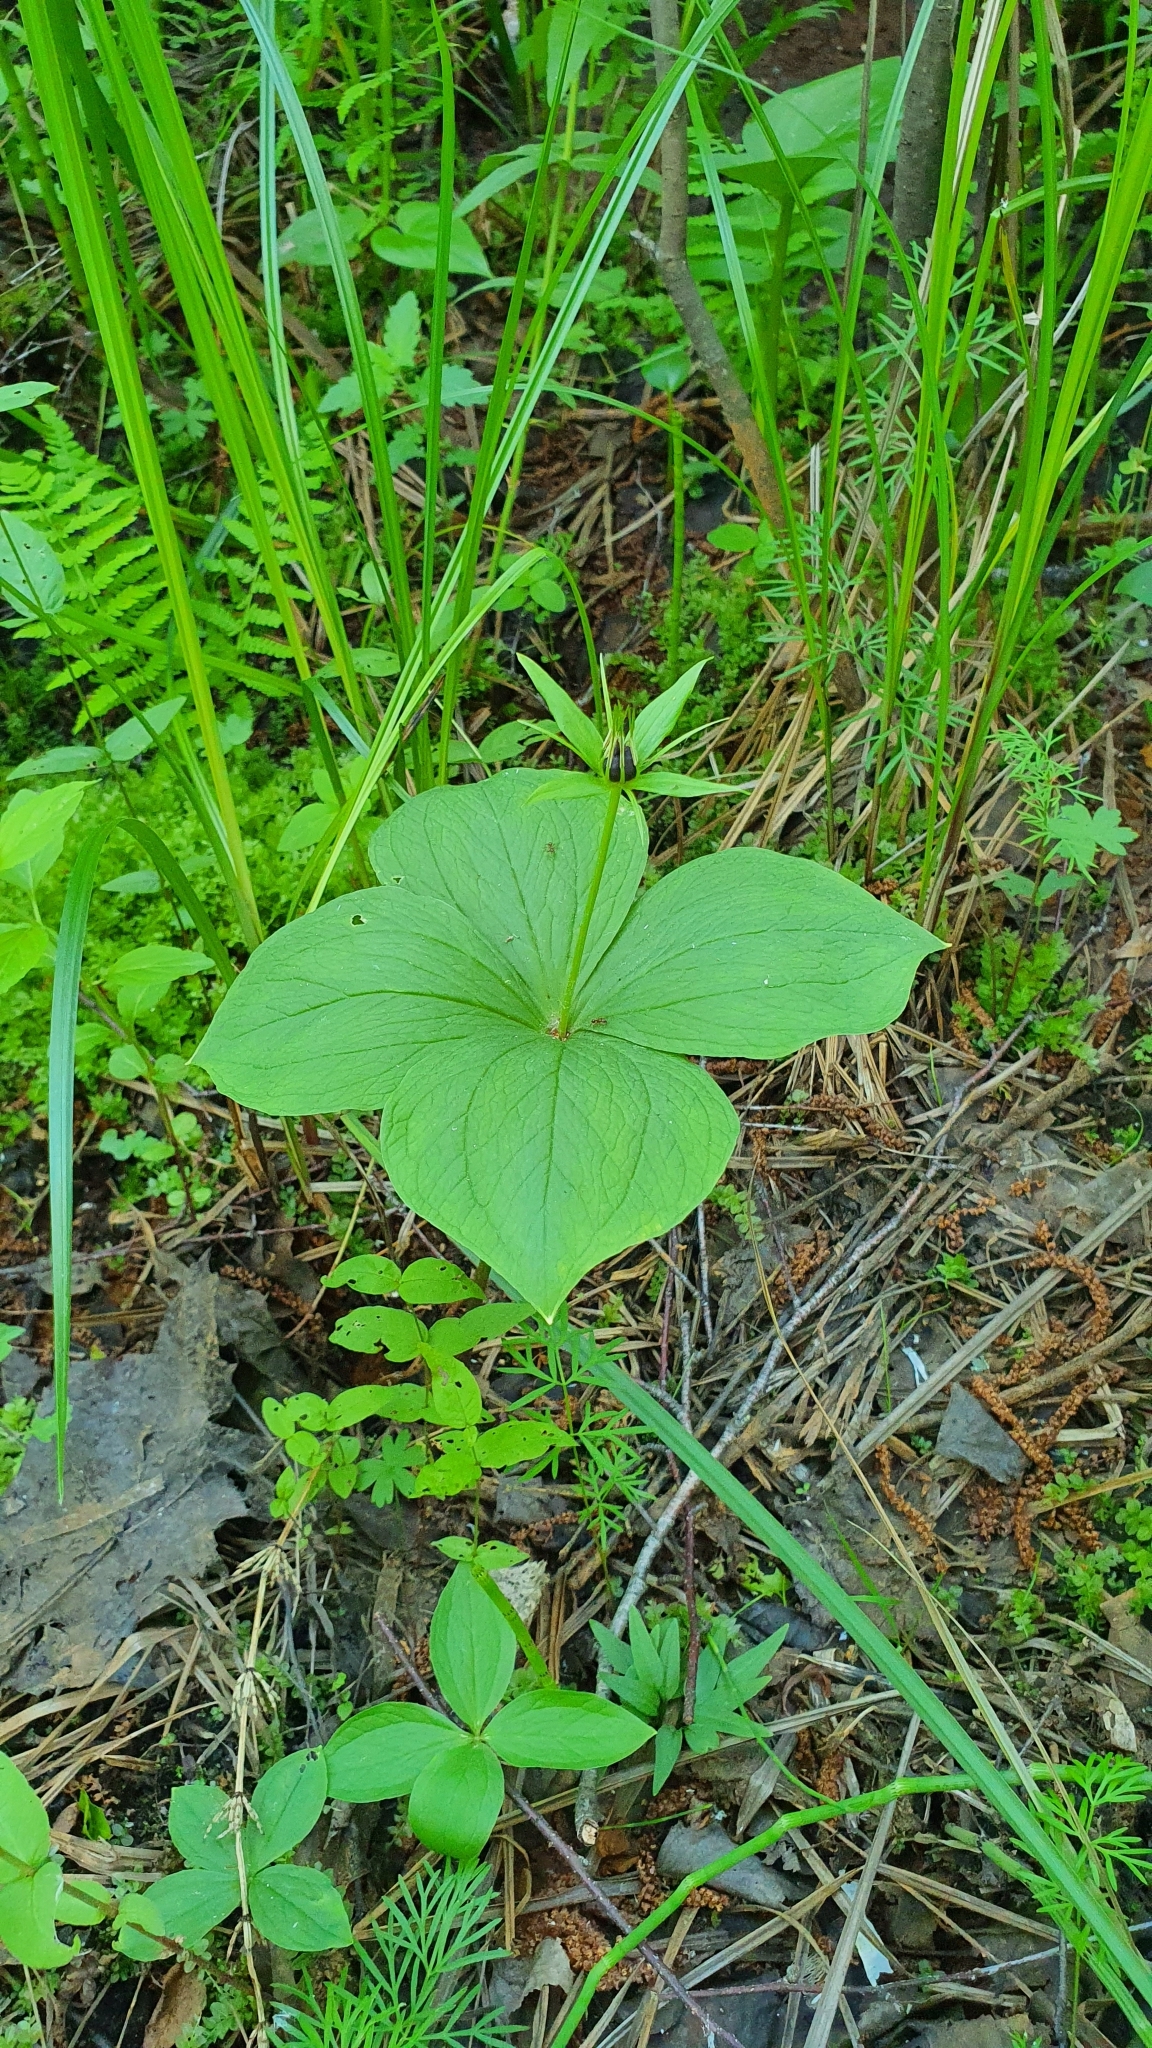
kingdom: Plantae
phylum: Tracheophyta
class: Liliopsida
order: Liliales
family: Melanthiaceae
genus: Paris
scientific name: Paris quadrifolia
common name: Herb-paris
